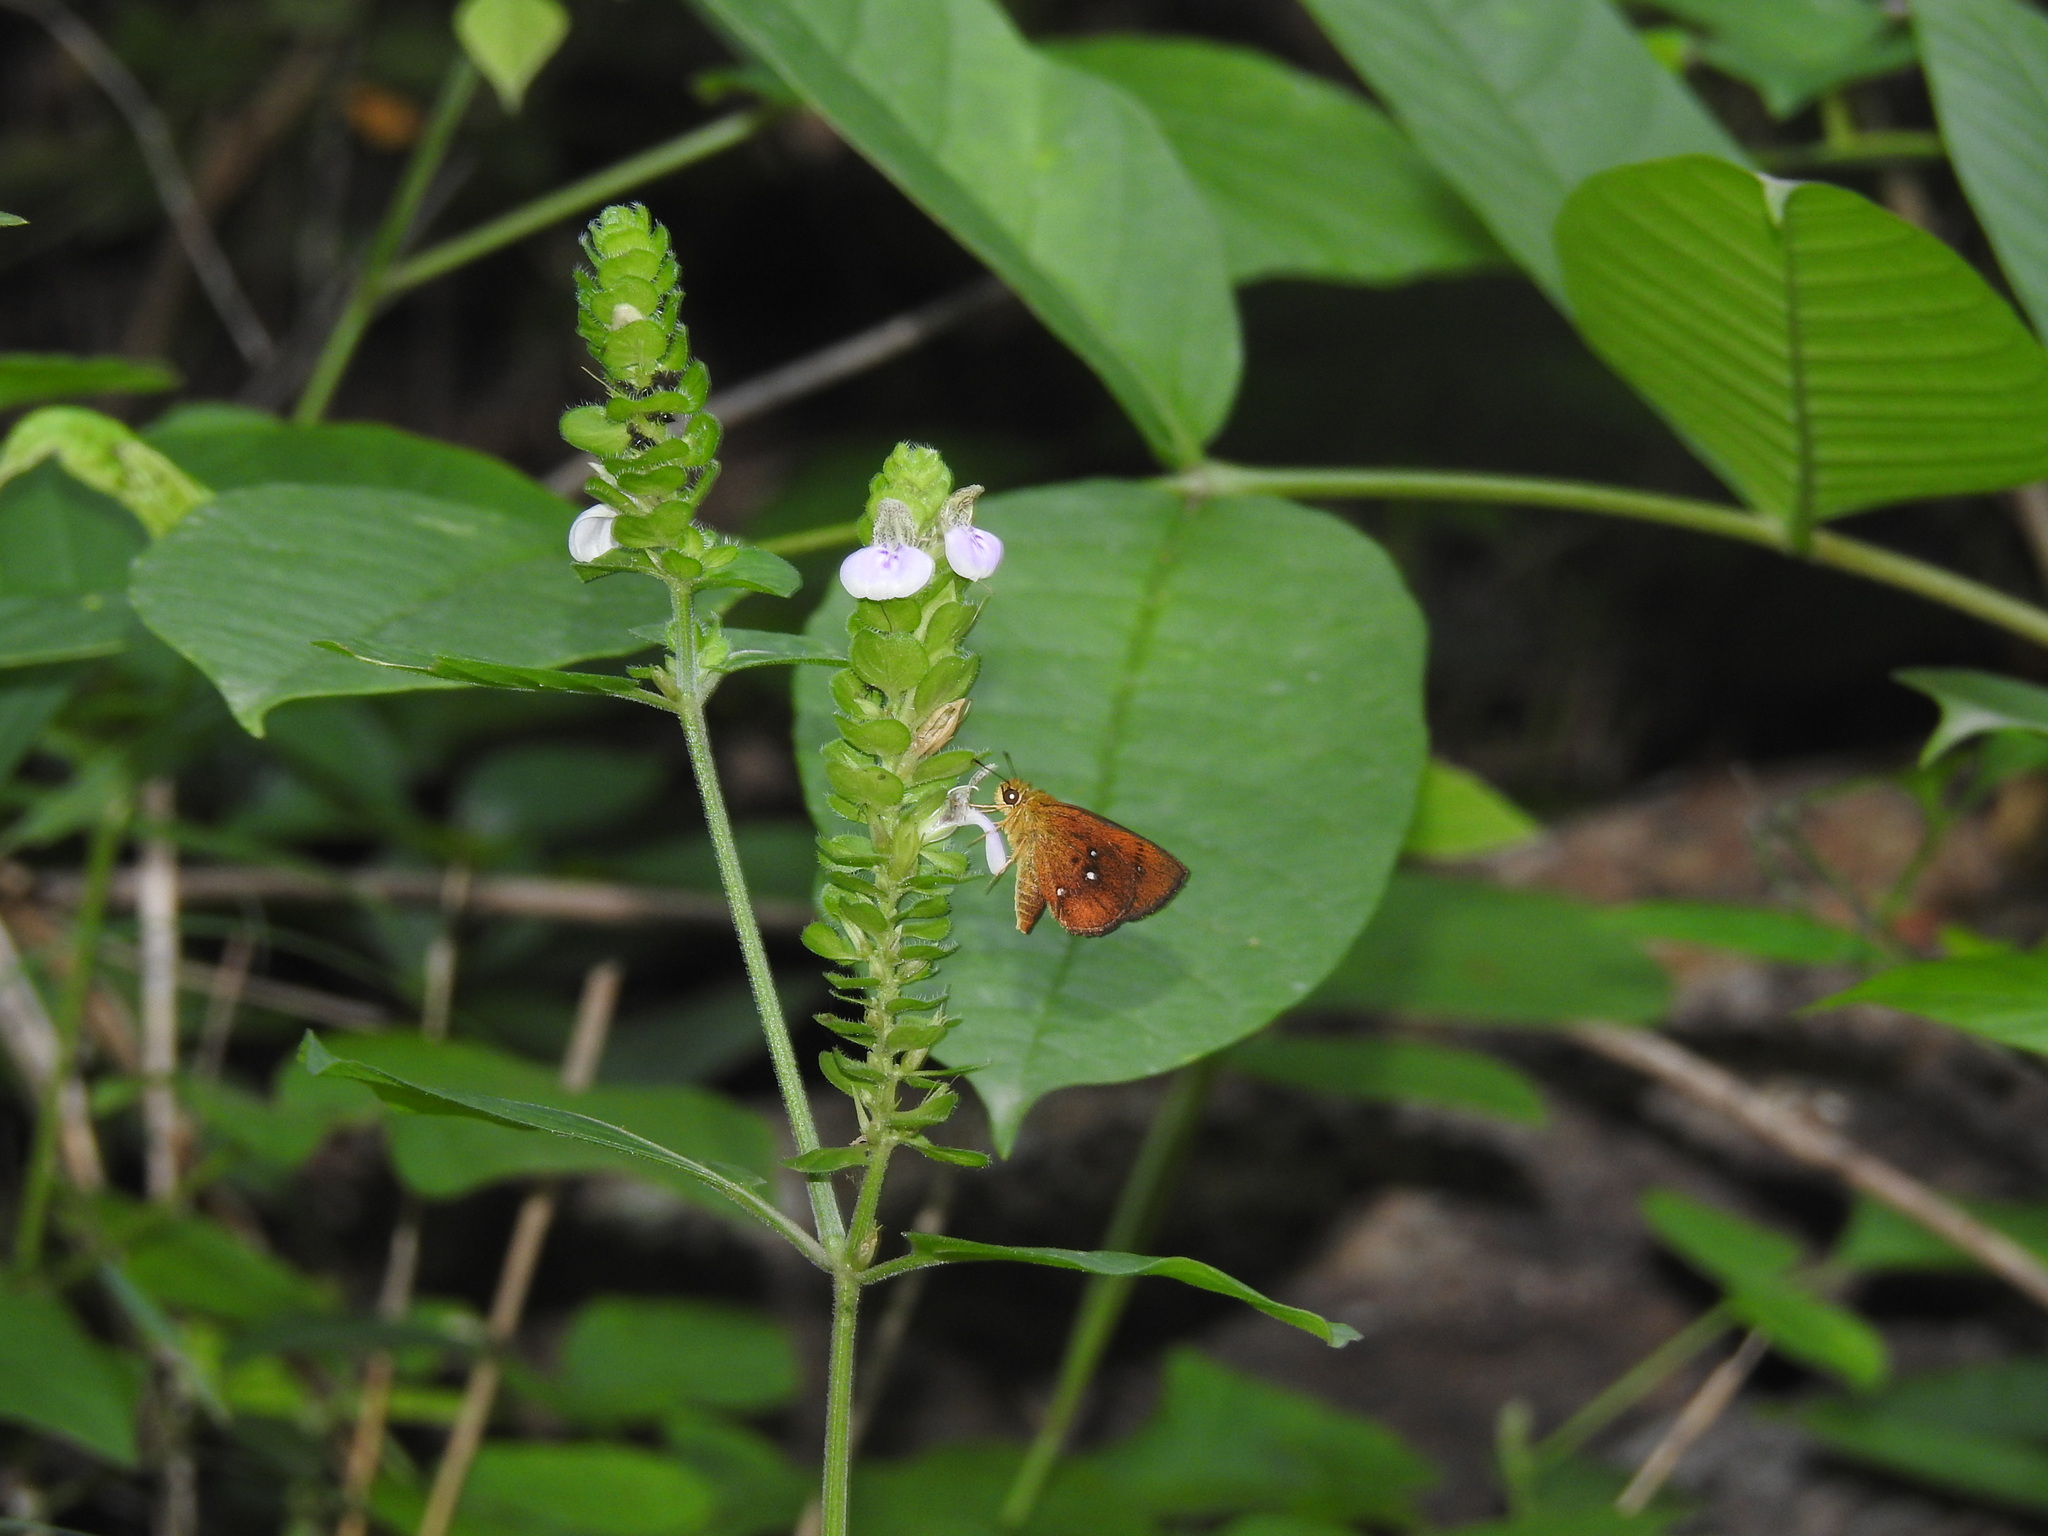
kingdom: Animalia
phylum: Arthropoda
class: Insecta
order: Lepidoptera
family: Hesperiidae
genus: Iambrix
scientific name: Iambrix salsala
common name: Chestnut bob
